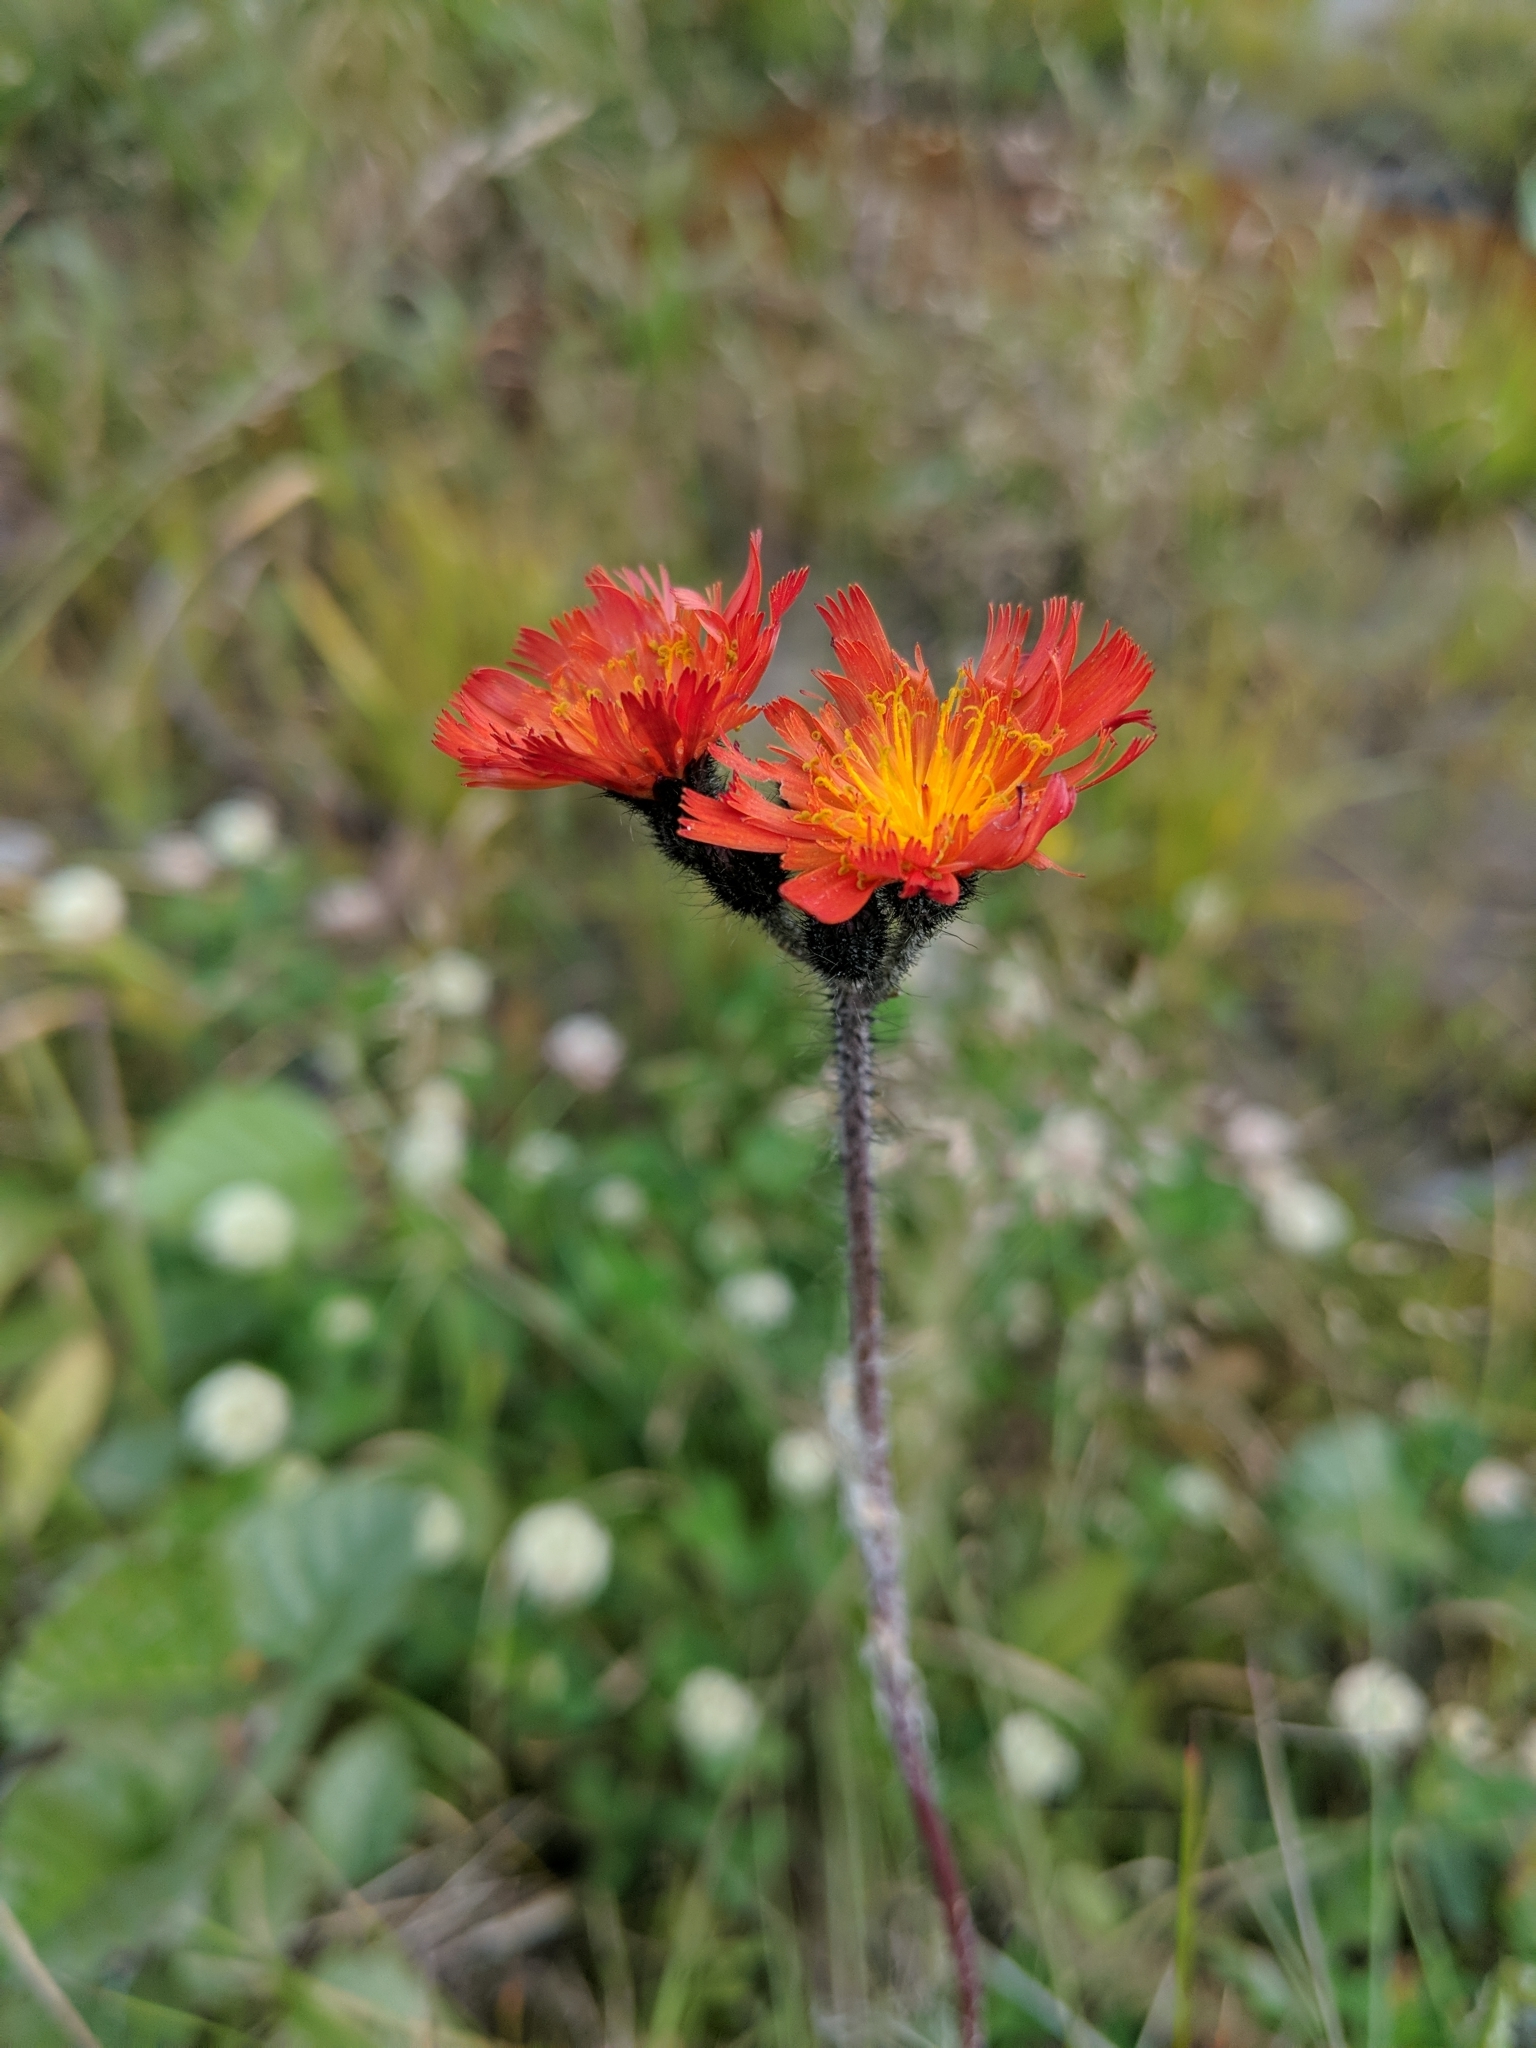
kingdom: Plantae
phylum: Tracheophyta
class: Magnoliopsida
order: Asterales
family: Asteraceae
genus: Pilosella
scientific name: Pilosella aurantiaca
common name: Fox-and-cubs
